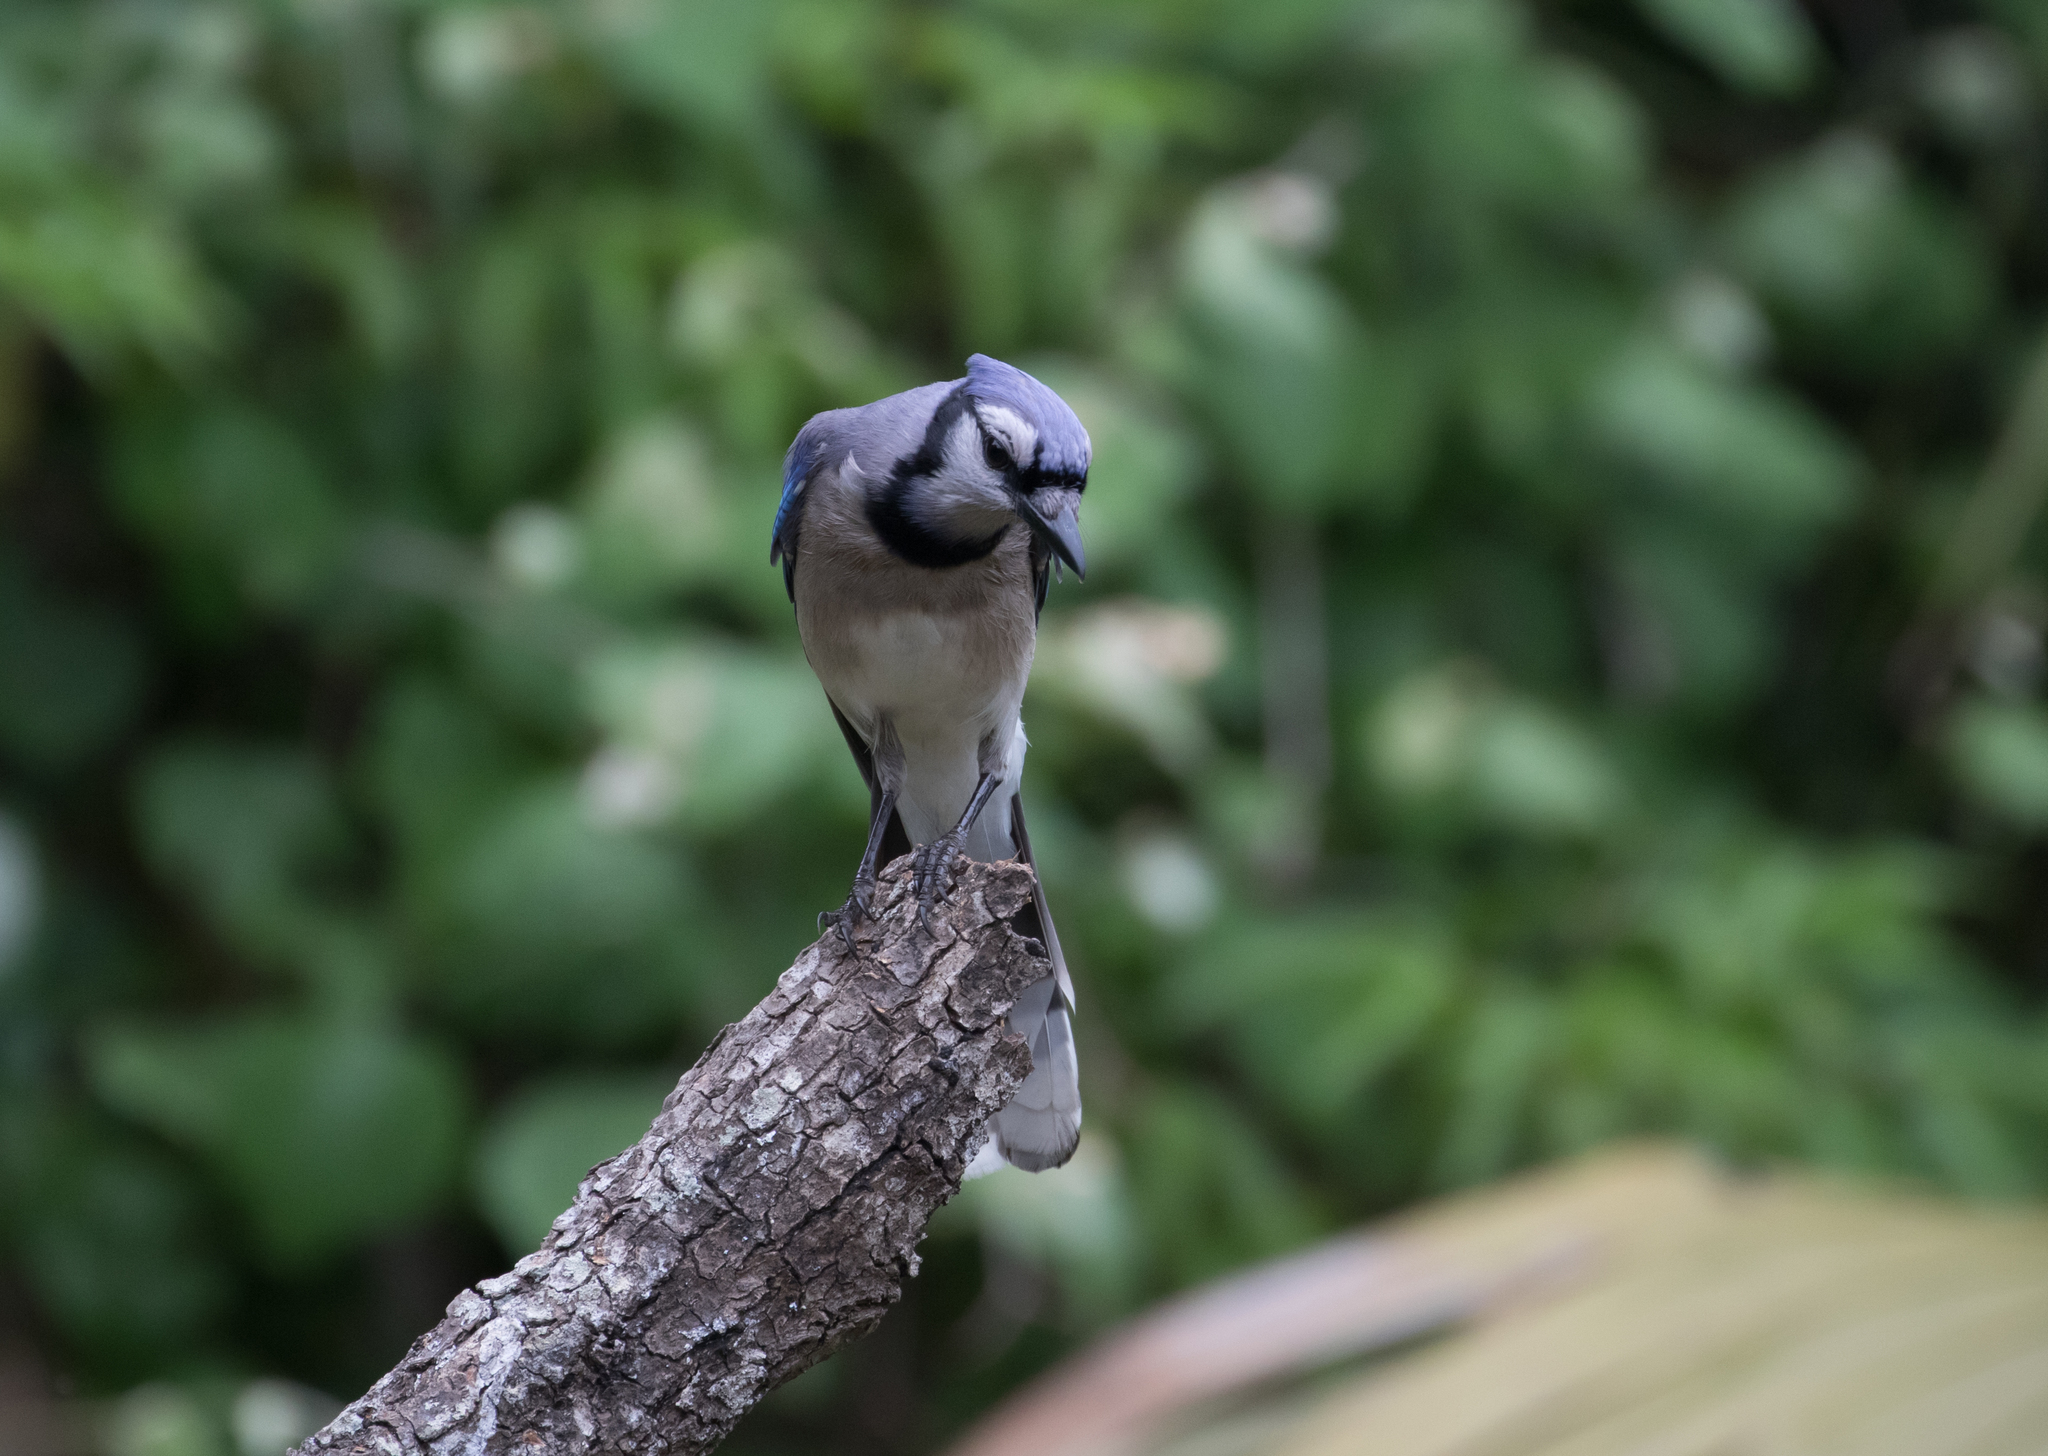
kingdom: Animalia
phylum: Chordata
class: Aves
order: Passeriformes
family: Corvidae
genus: Cyanocitta
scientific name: Cyanocitta cristata
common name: Blue jay
